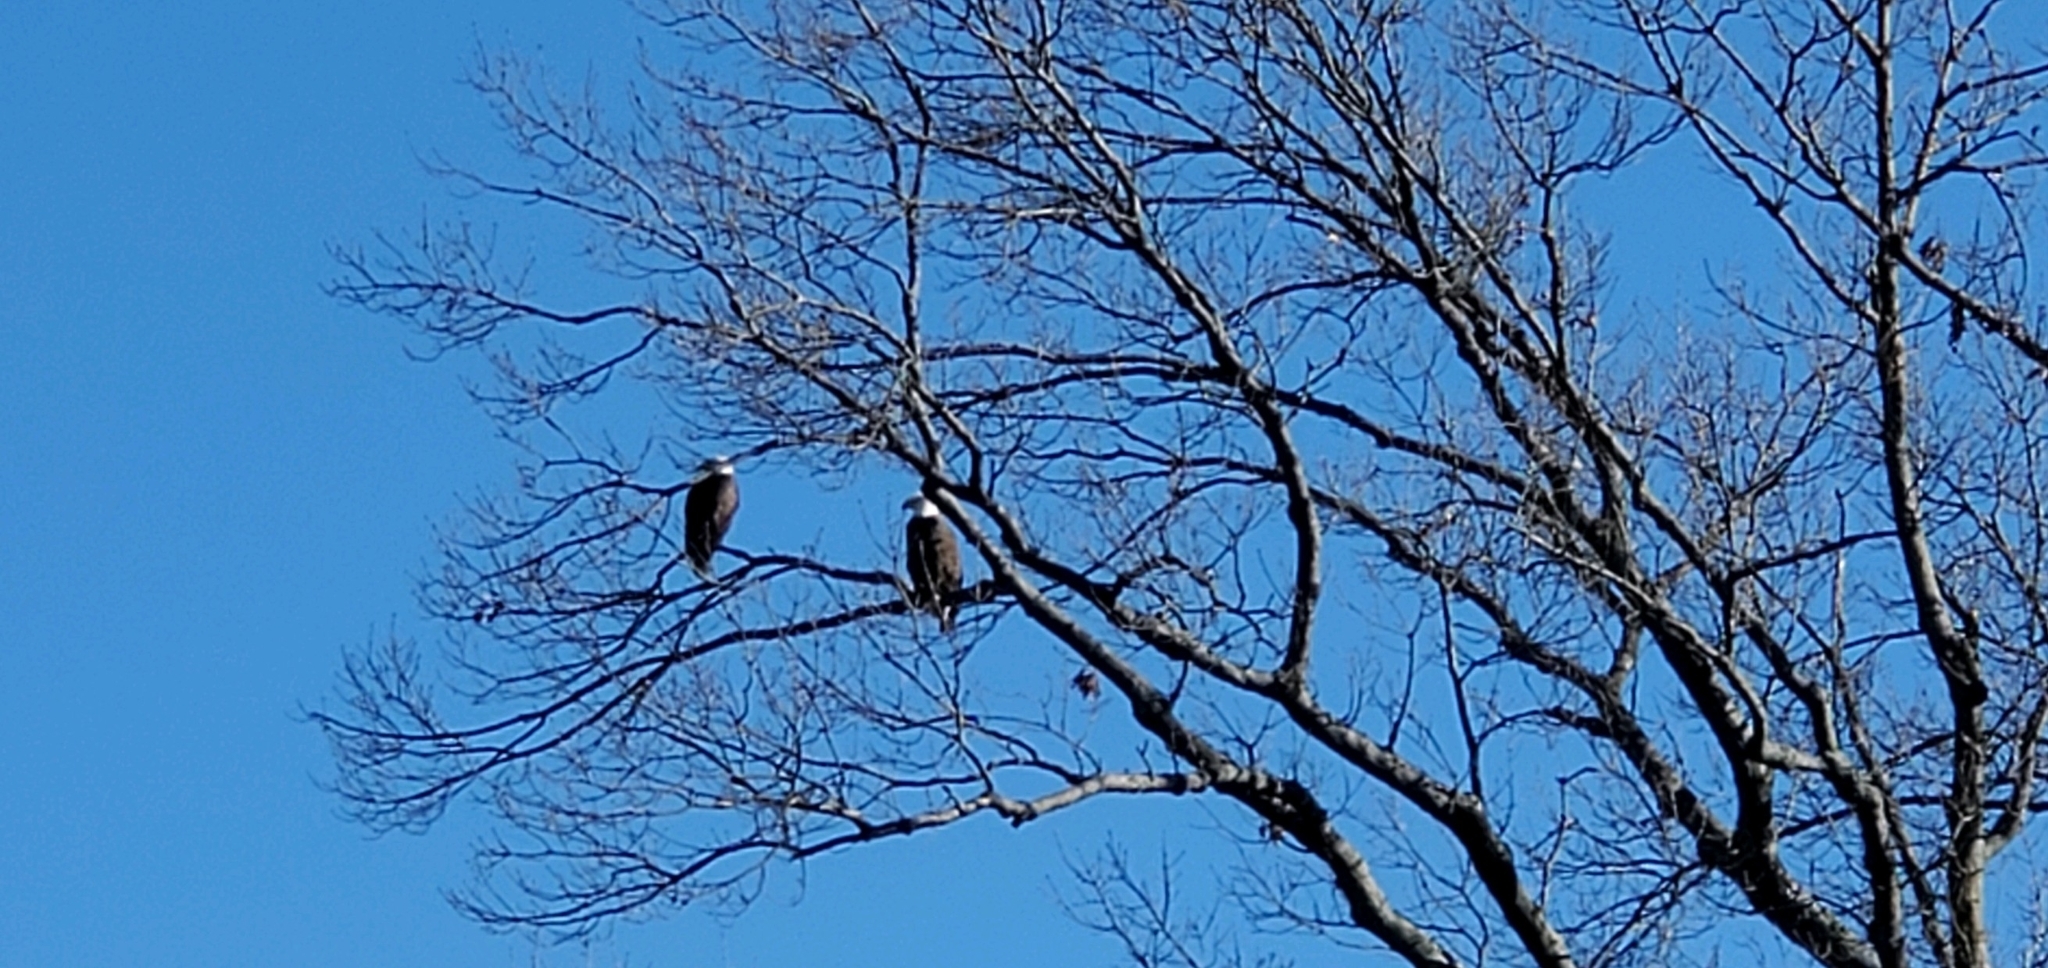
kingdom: Animalia
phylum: Chordata
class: Aves
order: Accipitriformes
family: Accipitridae
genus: Haliaeetus
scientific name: Haliaeetus leucocephalus
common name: Bald eagle
